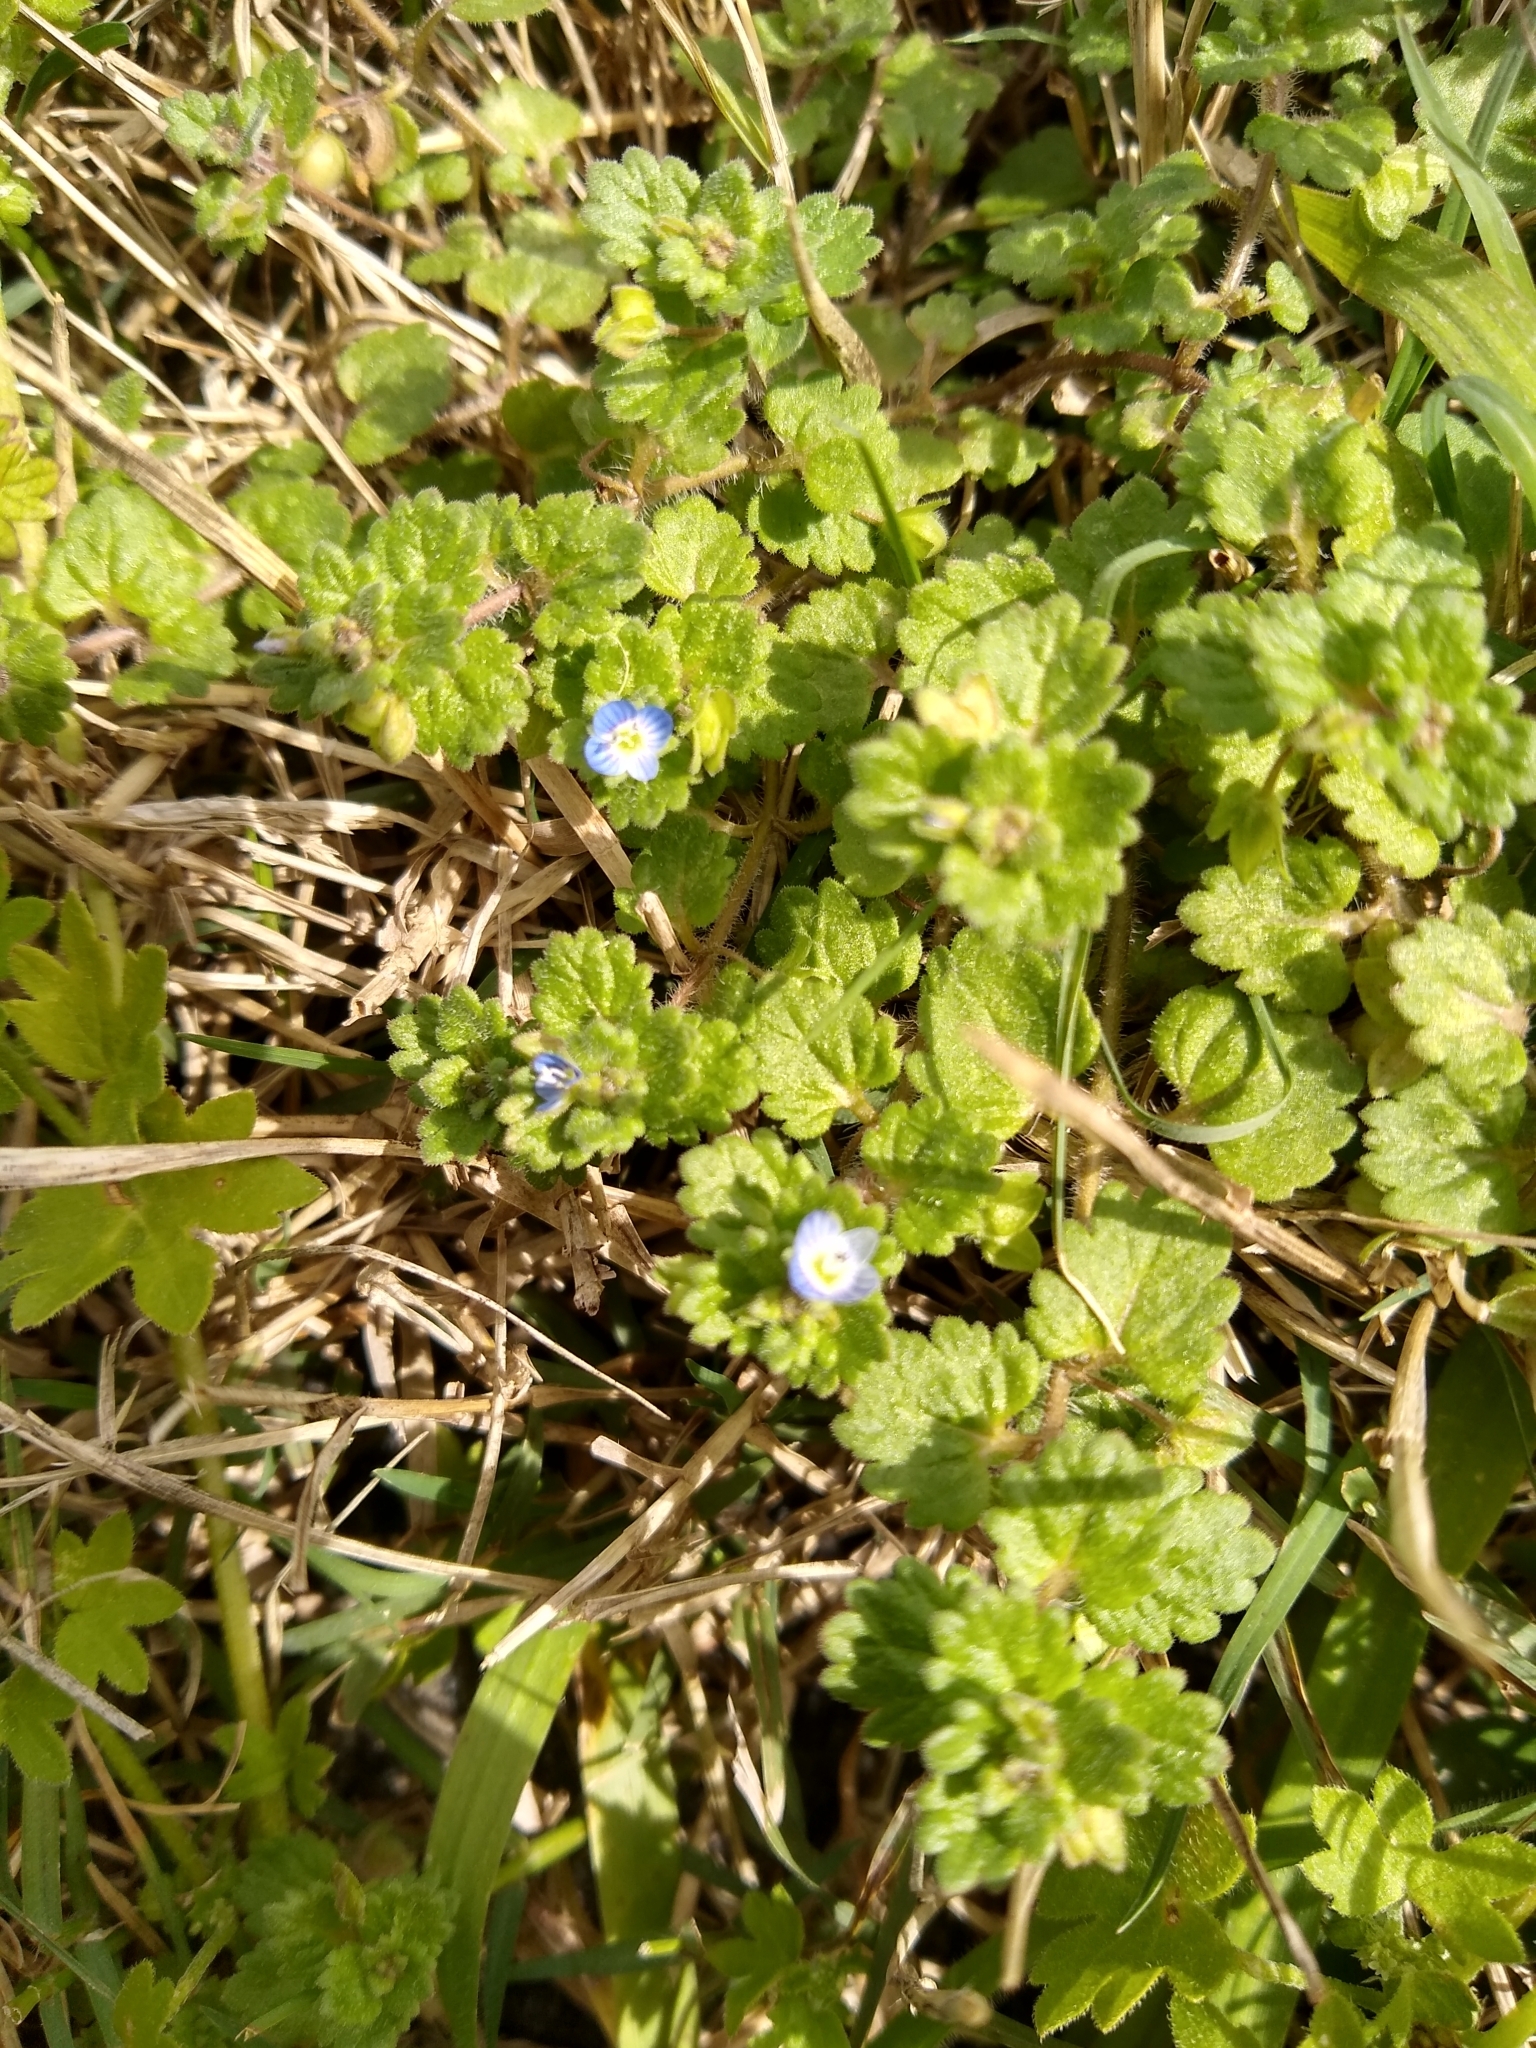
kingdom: Plantae
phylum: Tracheophyta
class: Magnoliopsida
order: Lamiales
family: Plantaginaceae
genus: Veronica
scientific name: Veronica persica
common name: Common field-speedwell
